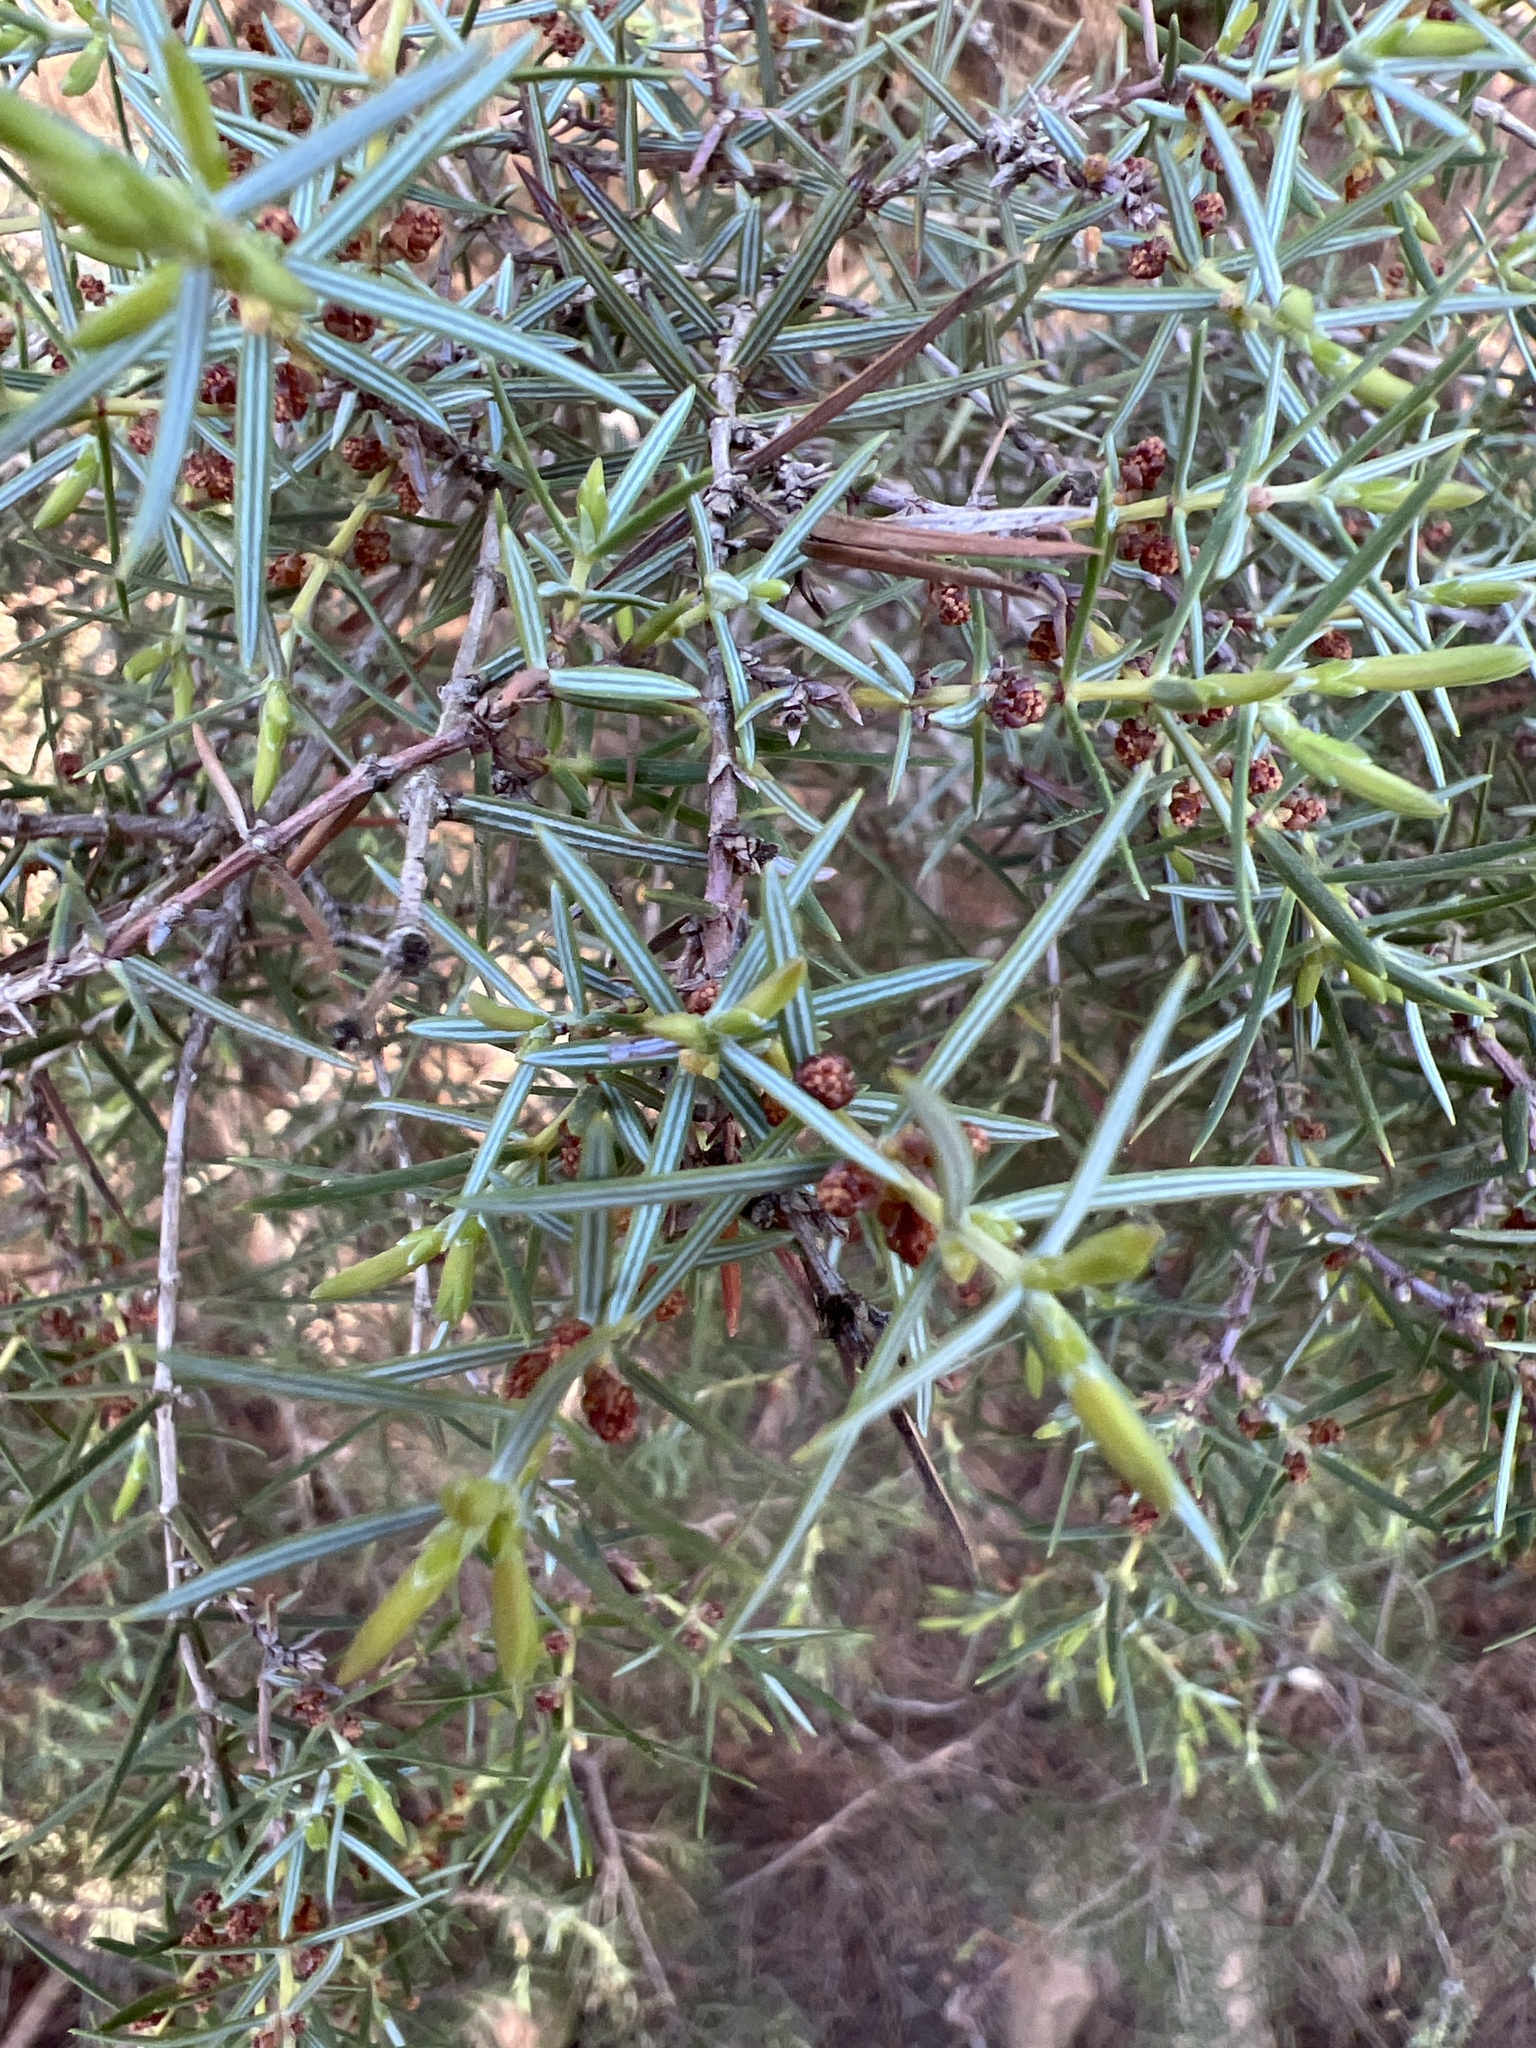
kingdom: Plantae
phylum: Tracheophyta
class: Pinopsida
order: Pinales
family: Cupressaceae
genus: Juniperus
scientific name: Juniperus oxycedrus
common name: Prickly juniper
